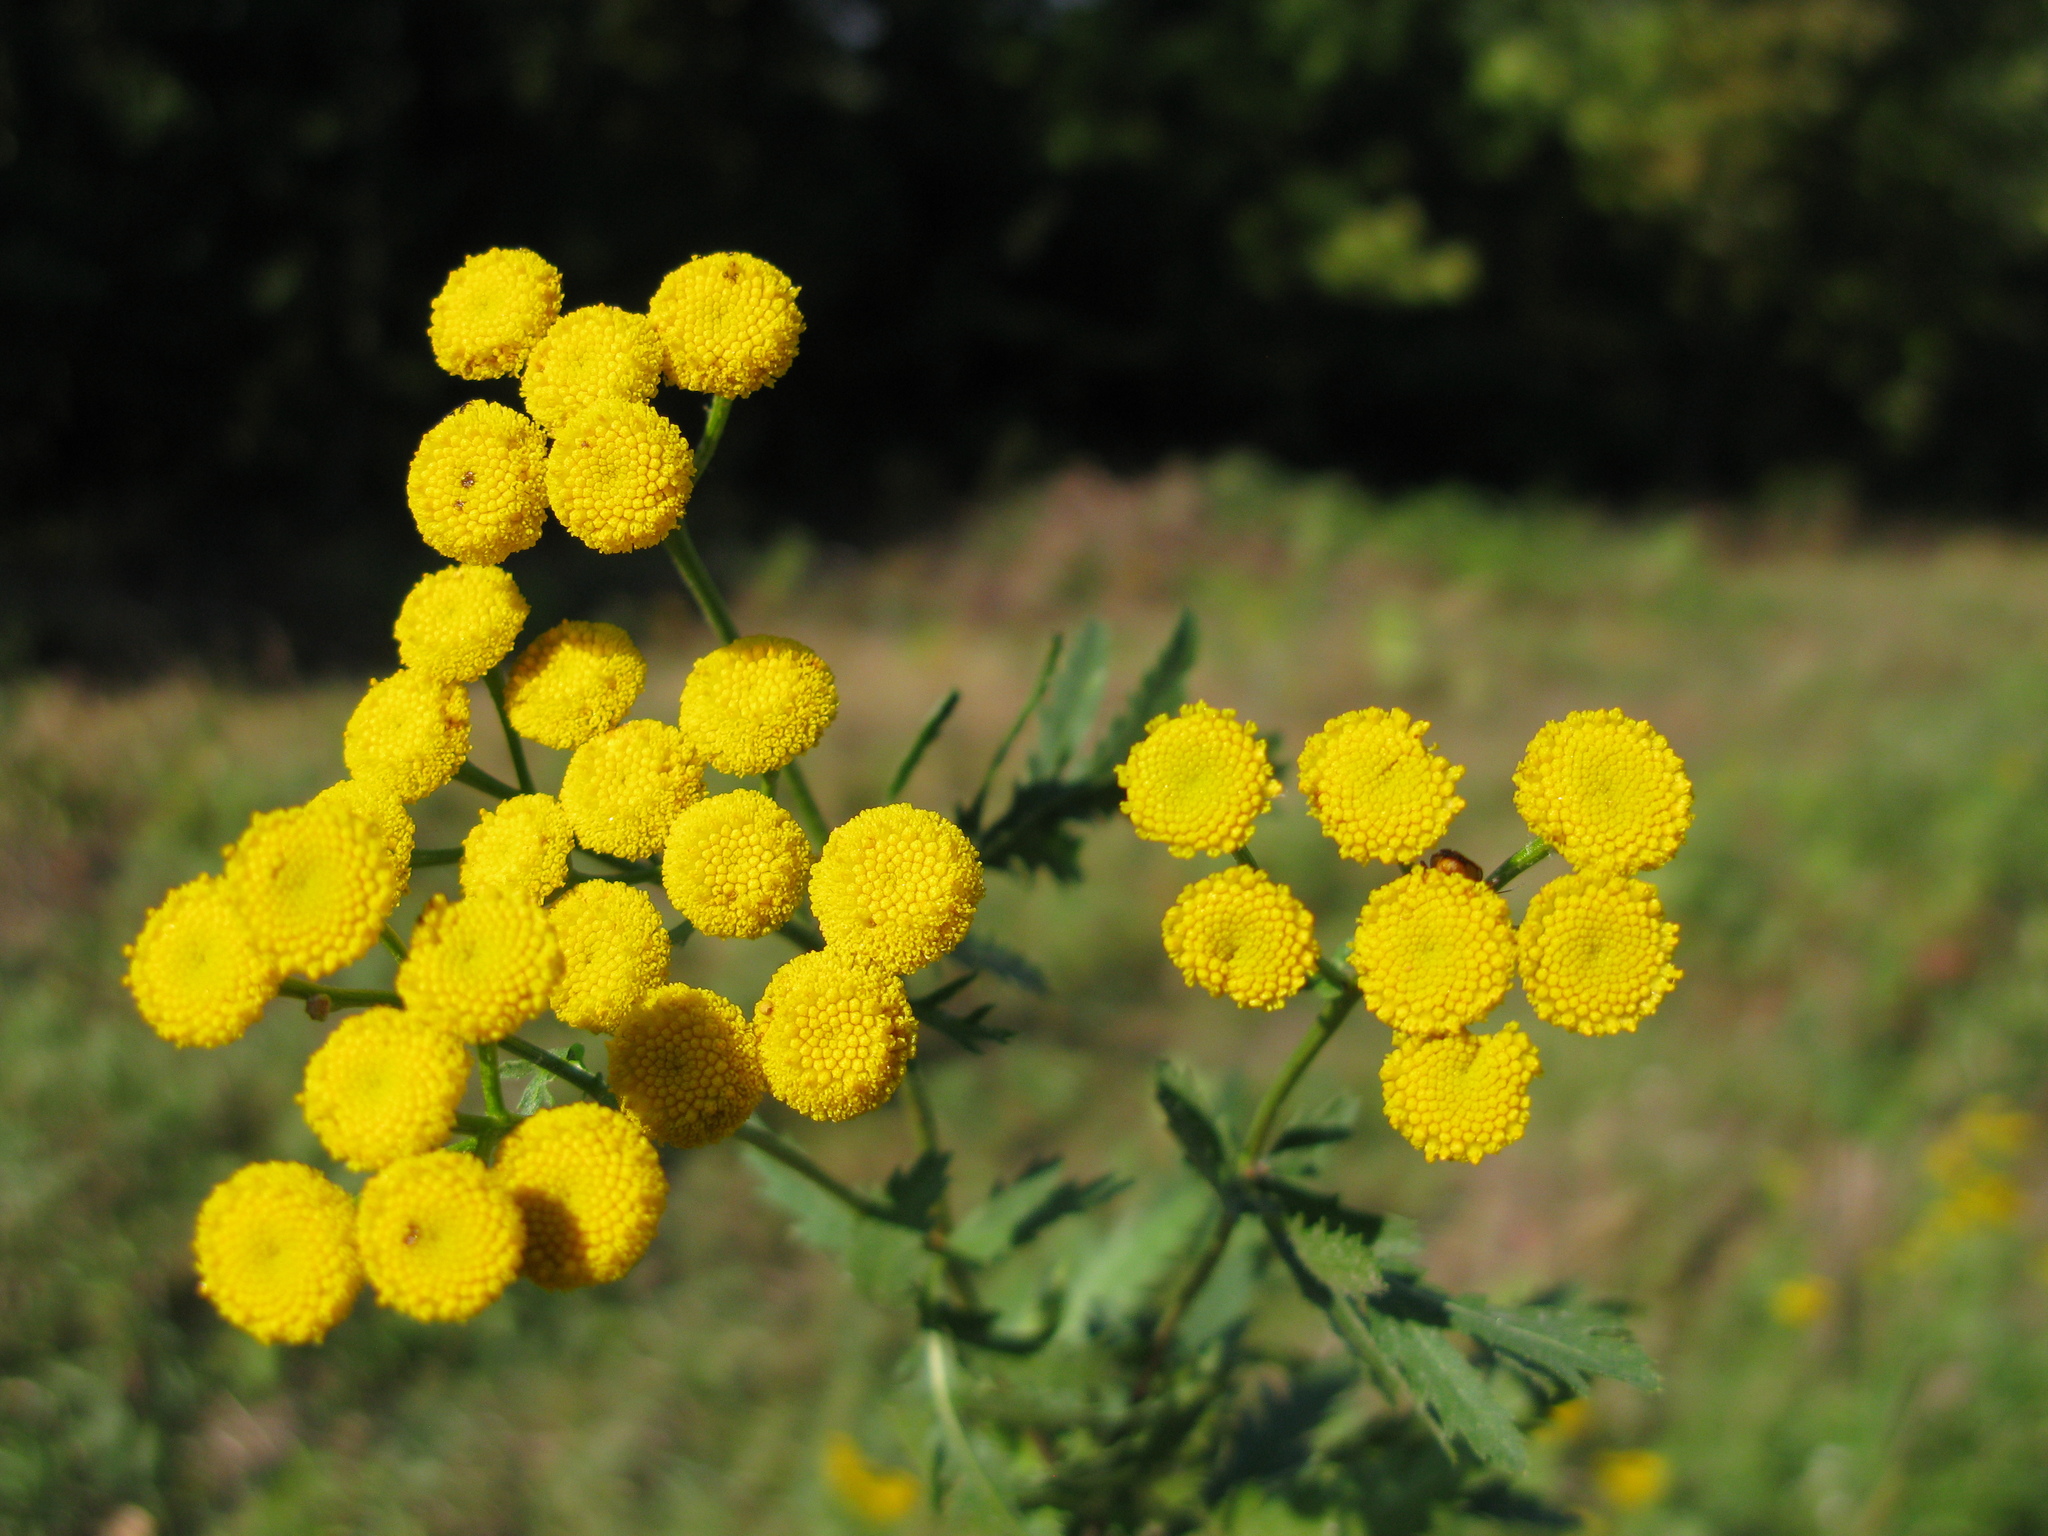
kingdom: Plantae
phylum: Tracheophyta
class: Magnoliopsida
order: Asterales
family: Asteraceae
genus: Tanacetum
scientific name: Tanacetum vulgare
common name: Common tansy
